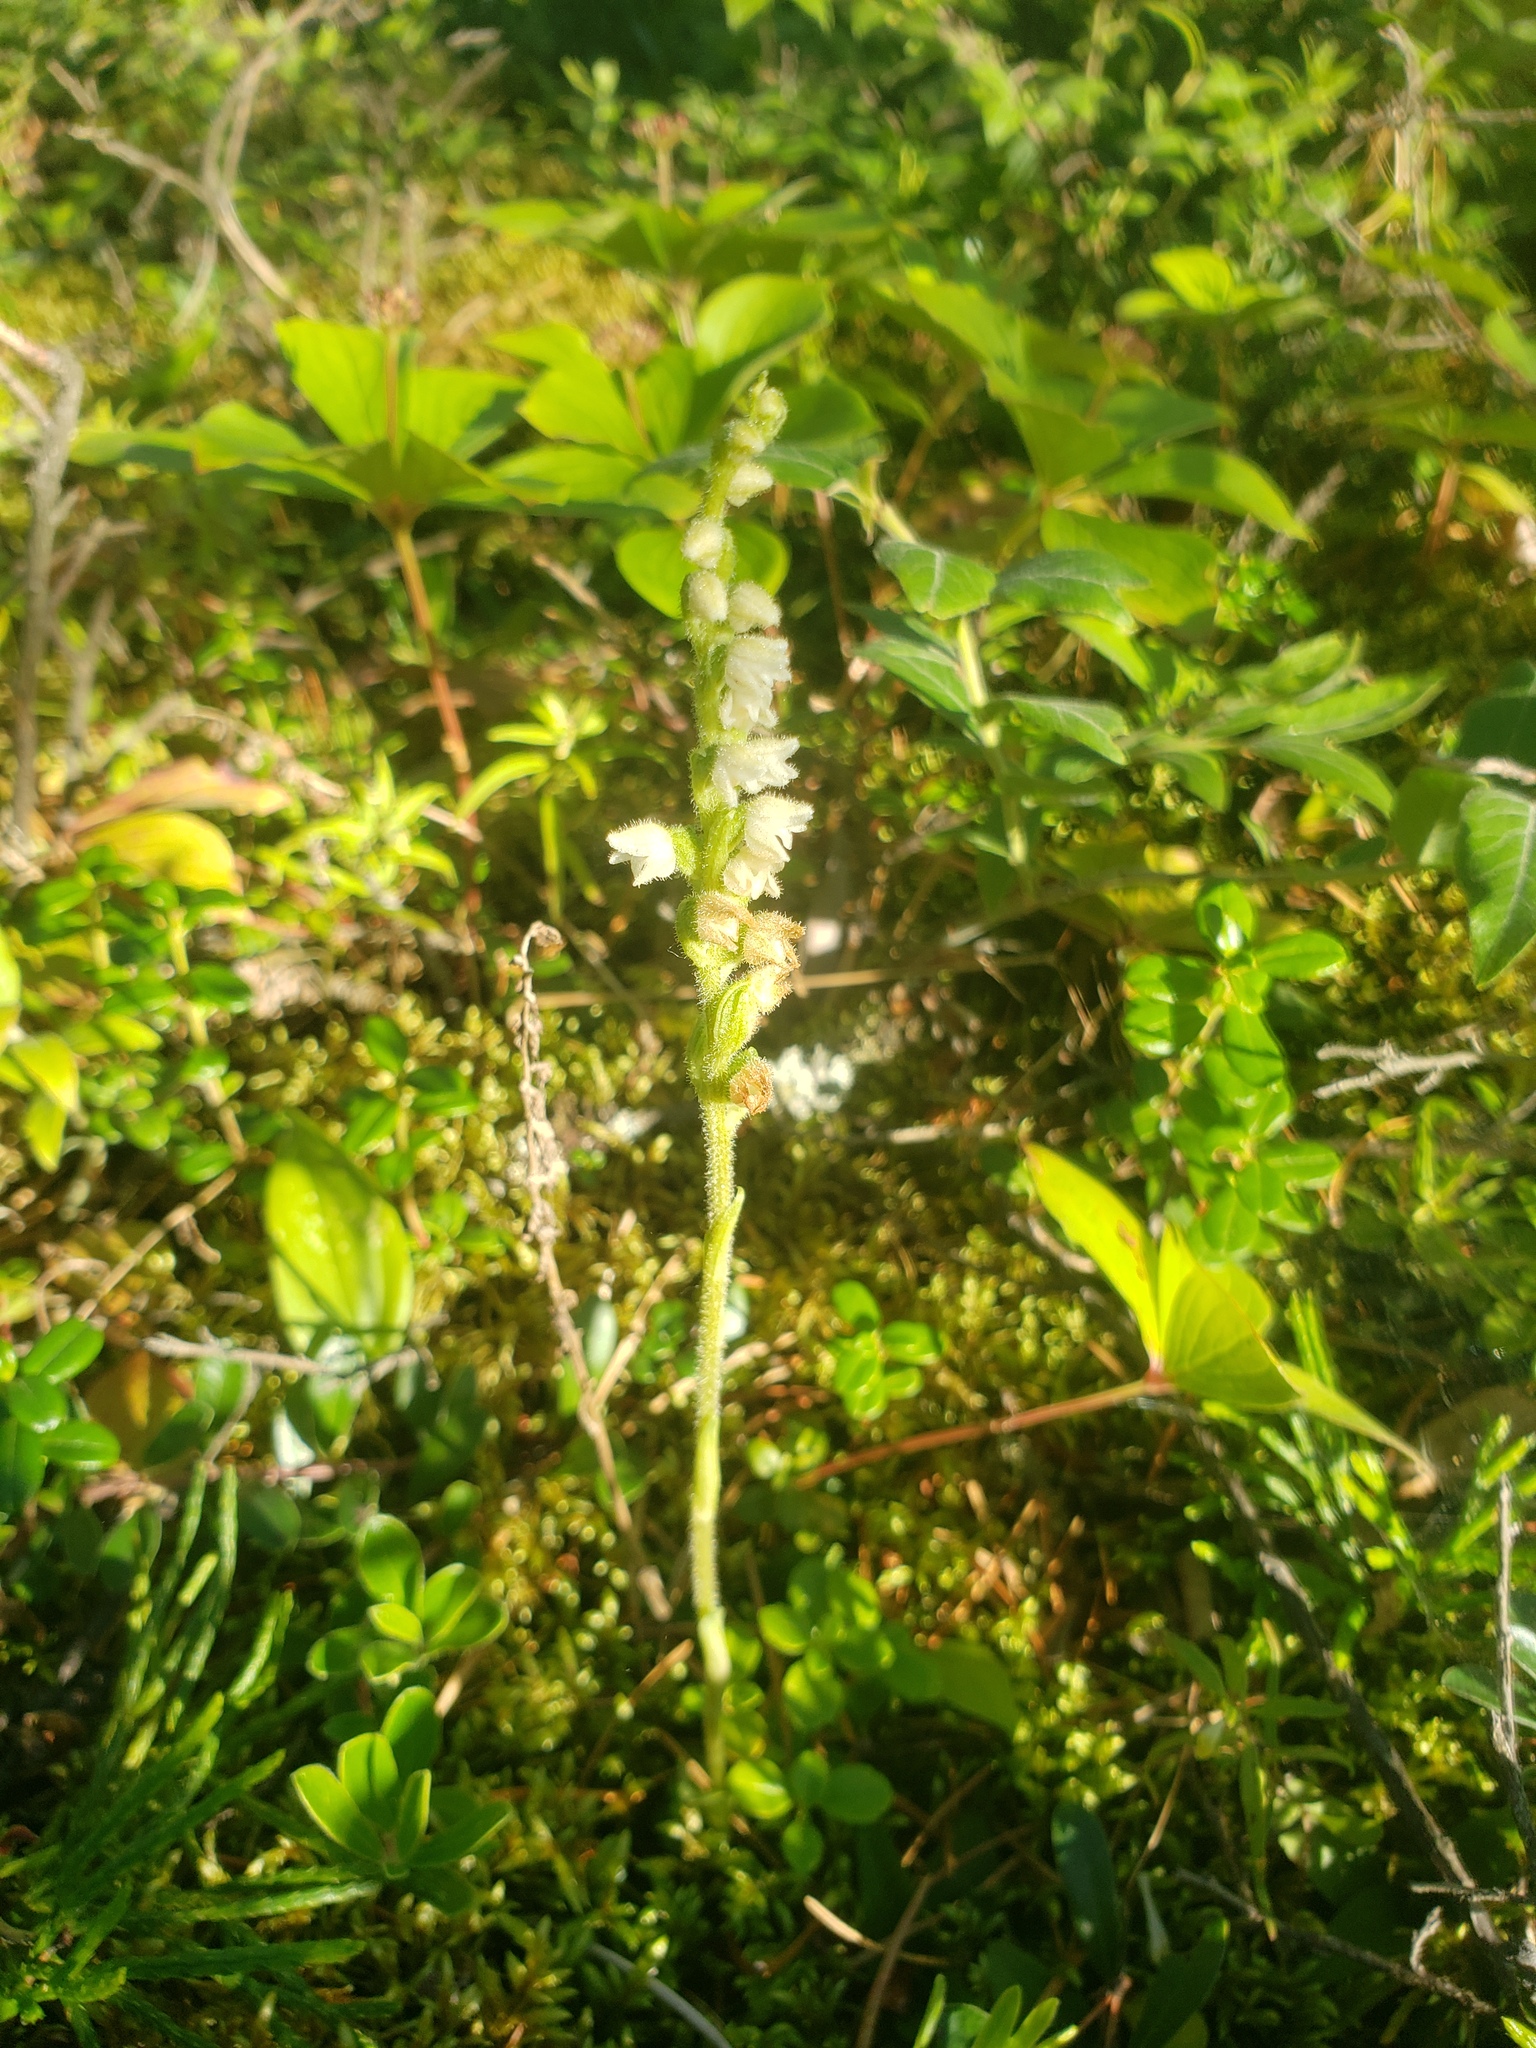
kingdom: Plantae
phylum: Tracheophyta
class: Liliopsida
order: Asparagales
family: Orchidaceae
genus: Goodyera
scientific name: Goodyera repens
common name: Creeping lady's-tresses
